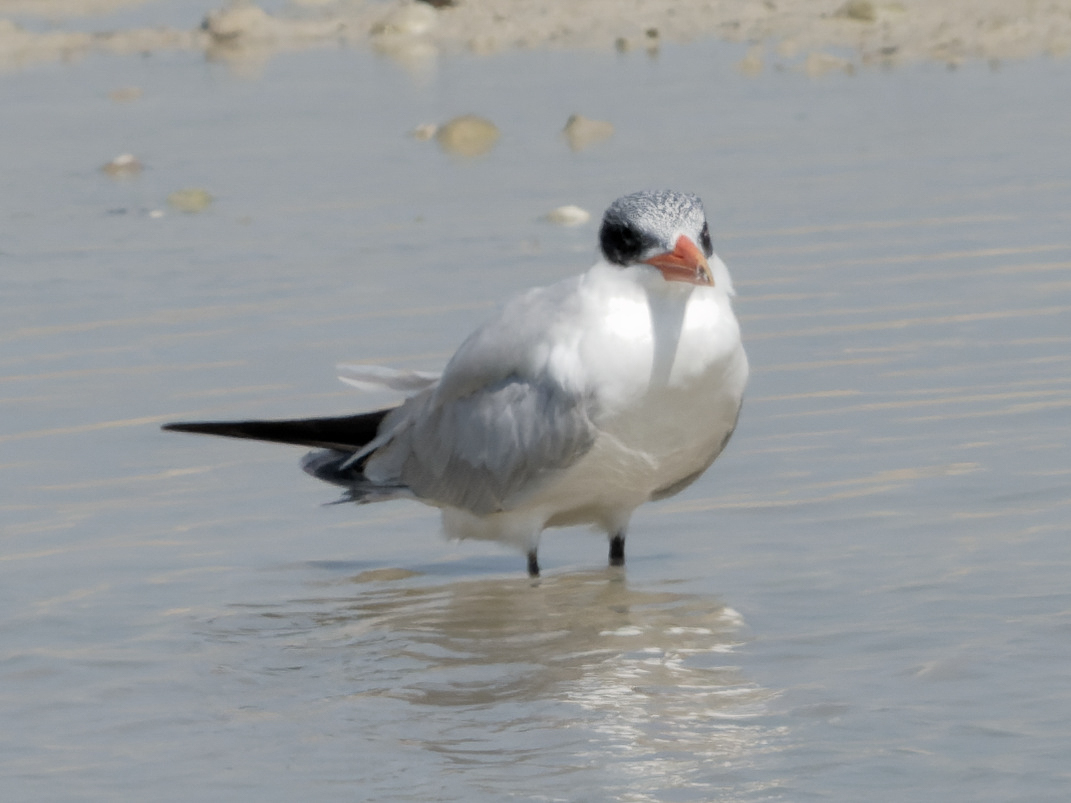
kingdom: Animalia
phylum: Chordata
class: Aves
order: Charadriiformes
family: Laridae
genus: Hydroprogne
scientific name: Hydroprogne caspia
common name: Caspian tern
